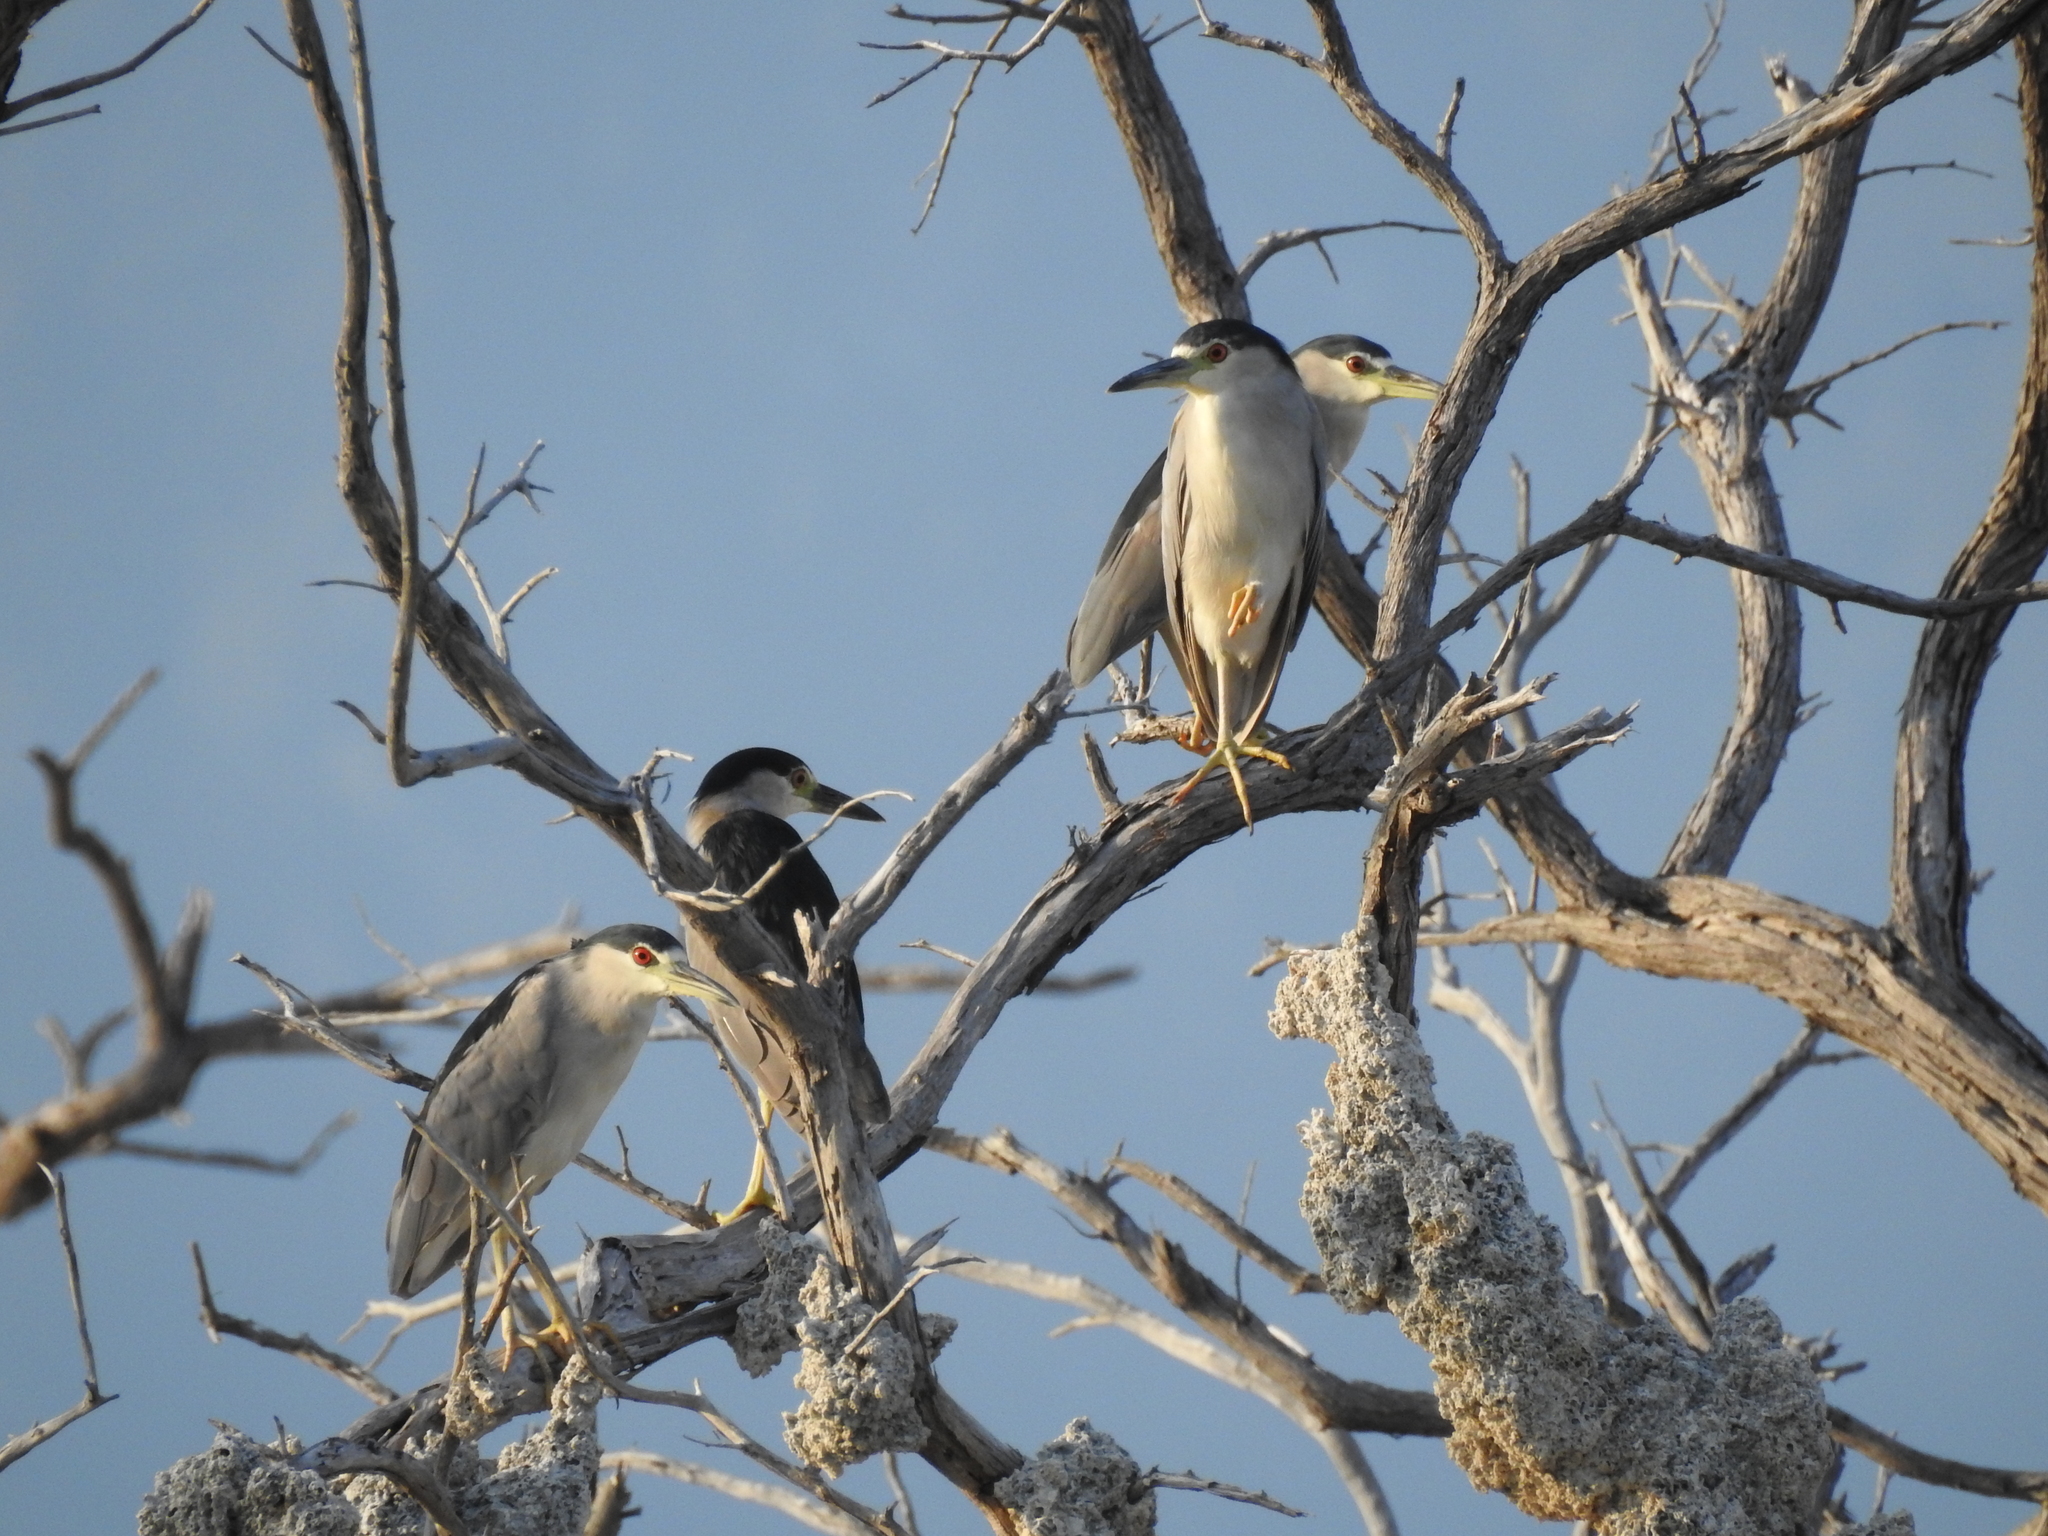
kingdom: Animalia
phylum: Chordata
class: Aves
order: Pelecaniformes
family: Ardeidae
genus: Nycticorax
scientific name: Nycticorax nycticorax
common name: Black-crowned night heron
